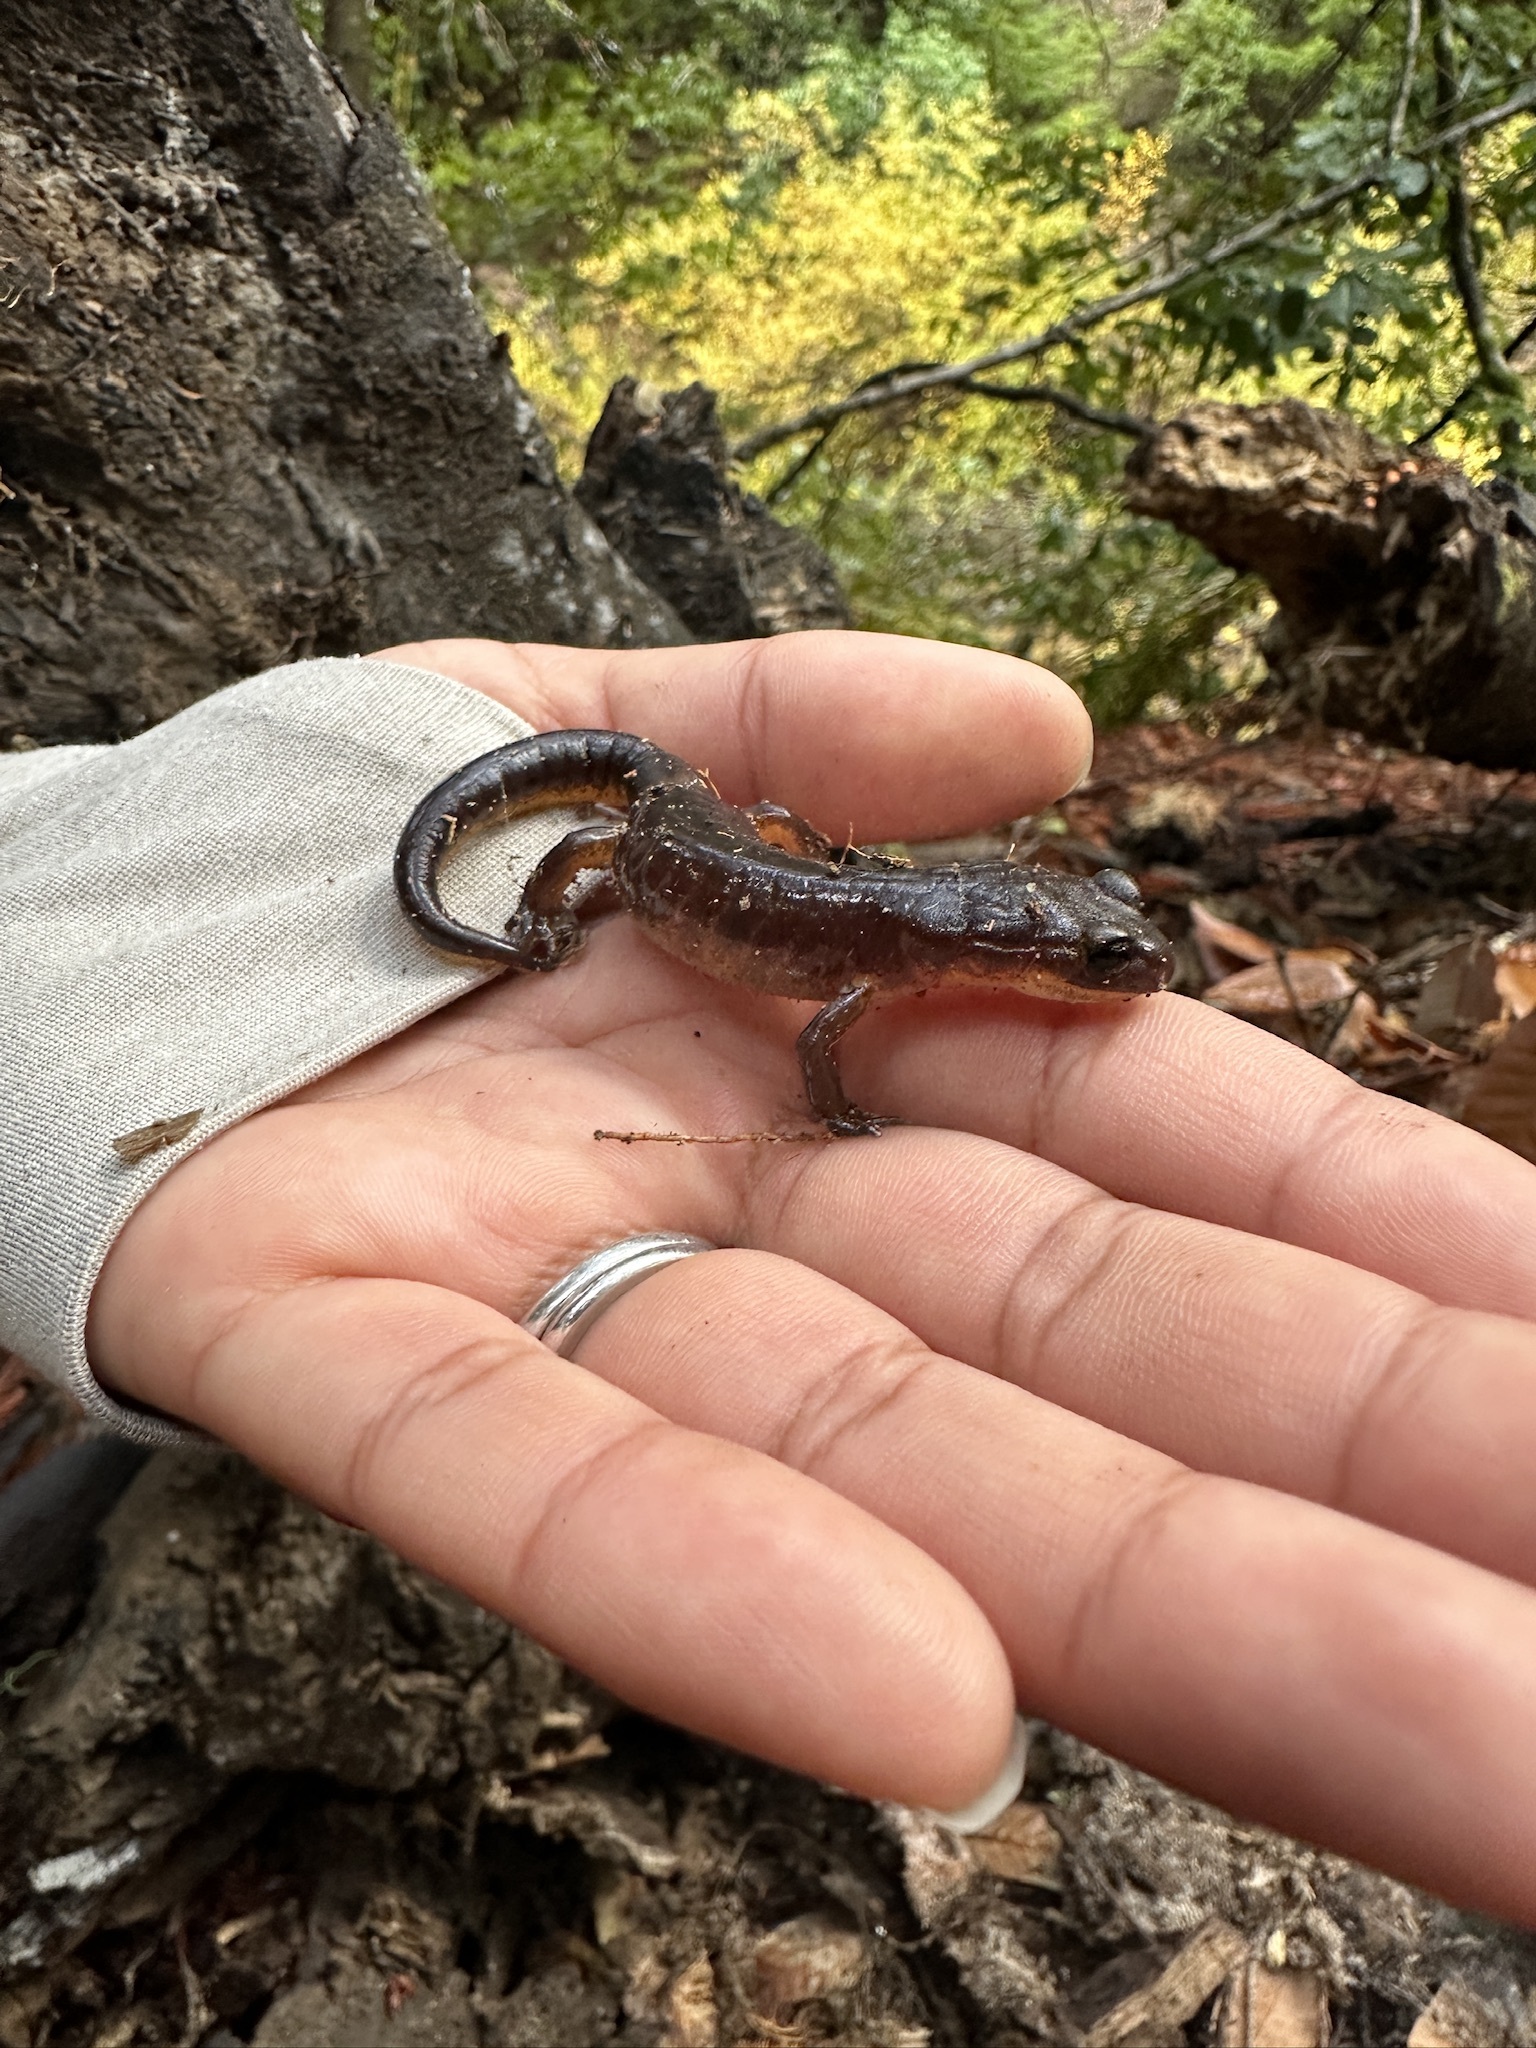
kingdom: Animalia
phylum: Chordata
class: Amphibia
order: Caudata
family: Plethodontidae
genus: Ensatina
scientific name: Ensatina eschscholtzii
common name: Ensatina
